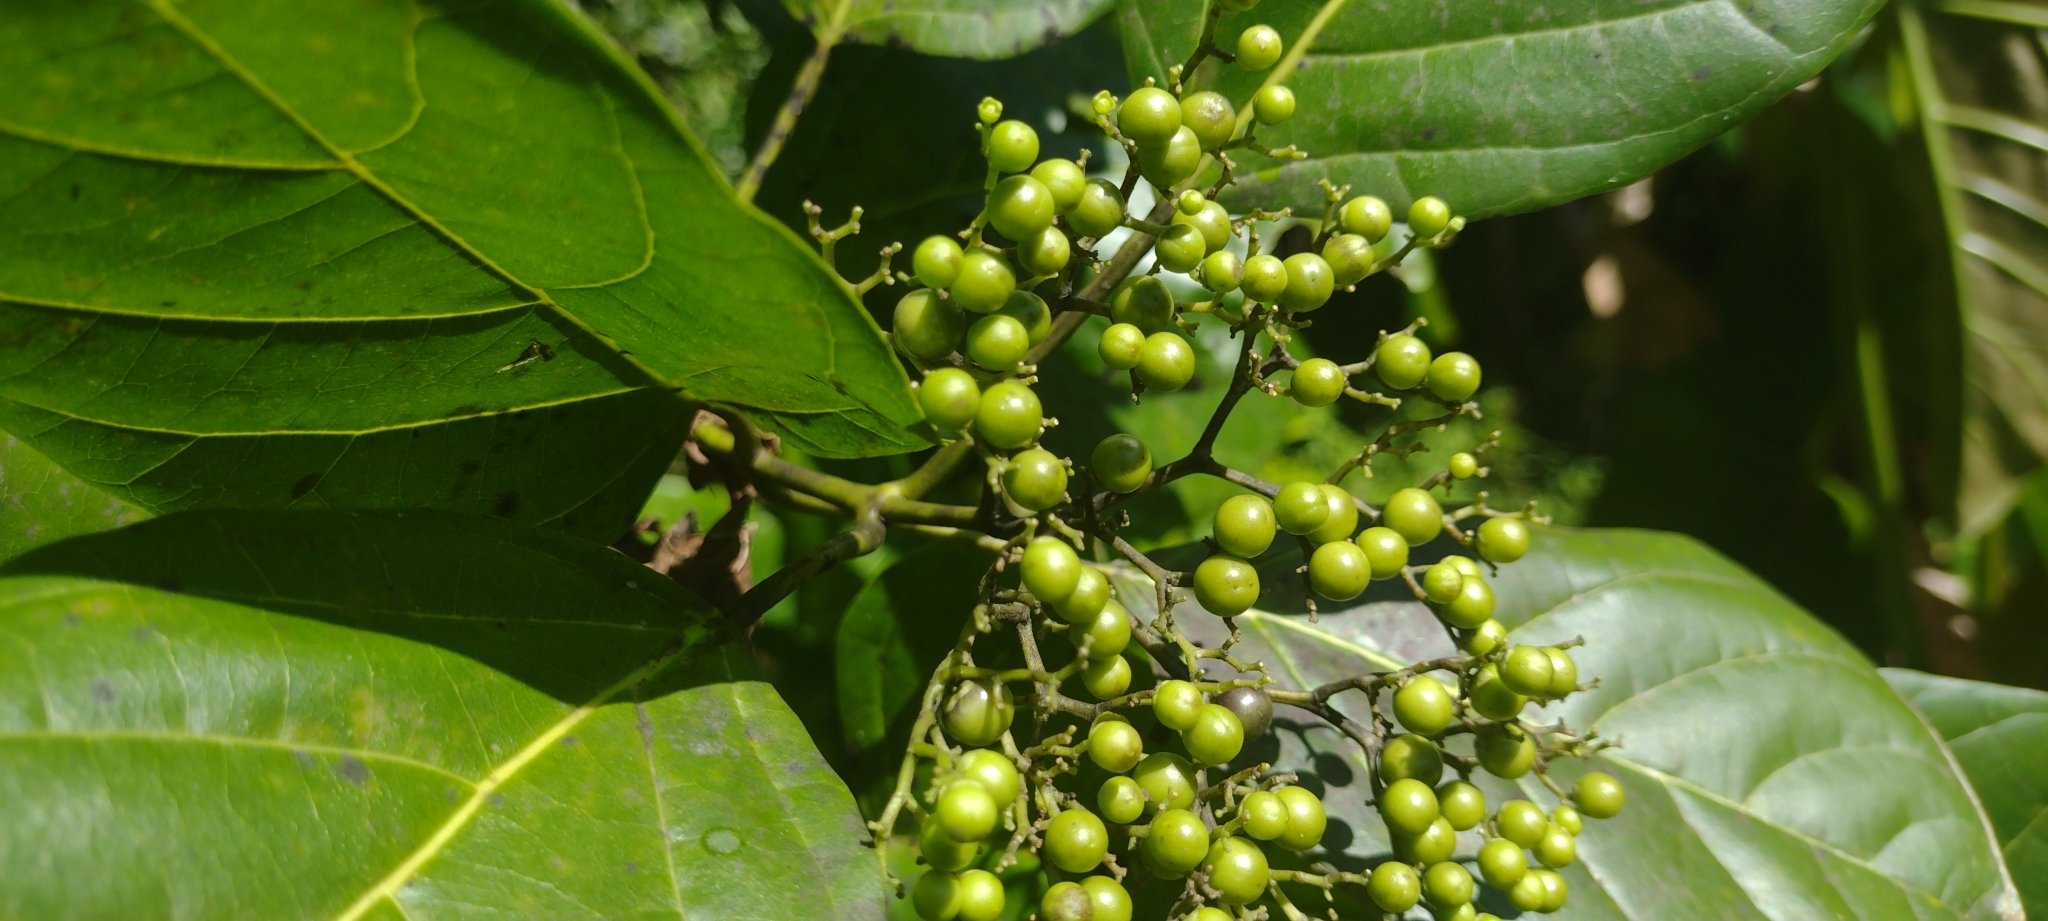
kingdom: Plantae
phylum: Tracheophyta
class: Magnoliopsida
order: Lamiales
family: Lamiaceae
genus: Premna
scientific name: Premna serratifolia
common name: Bastard guelder
